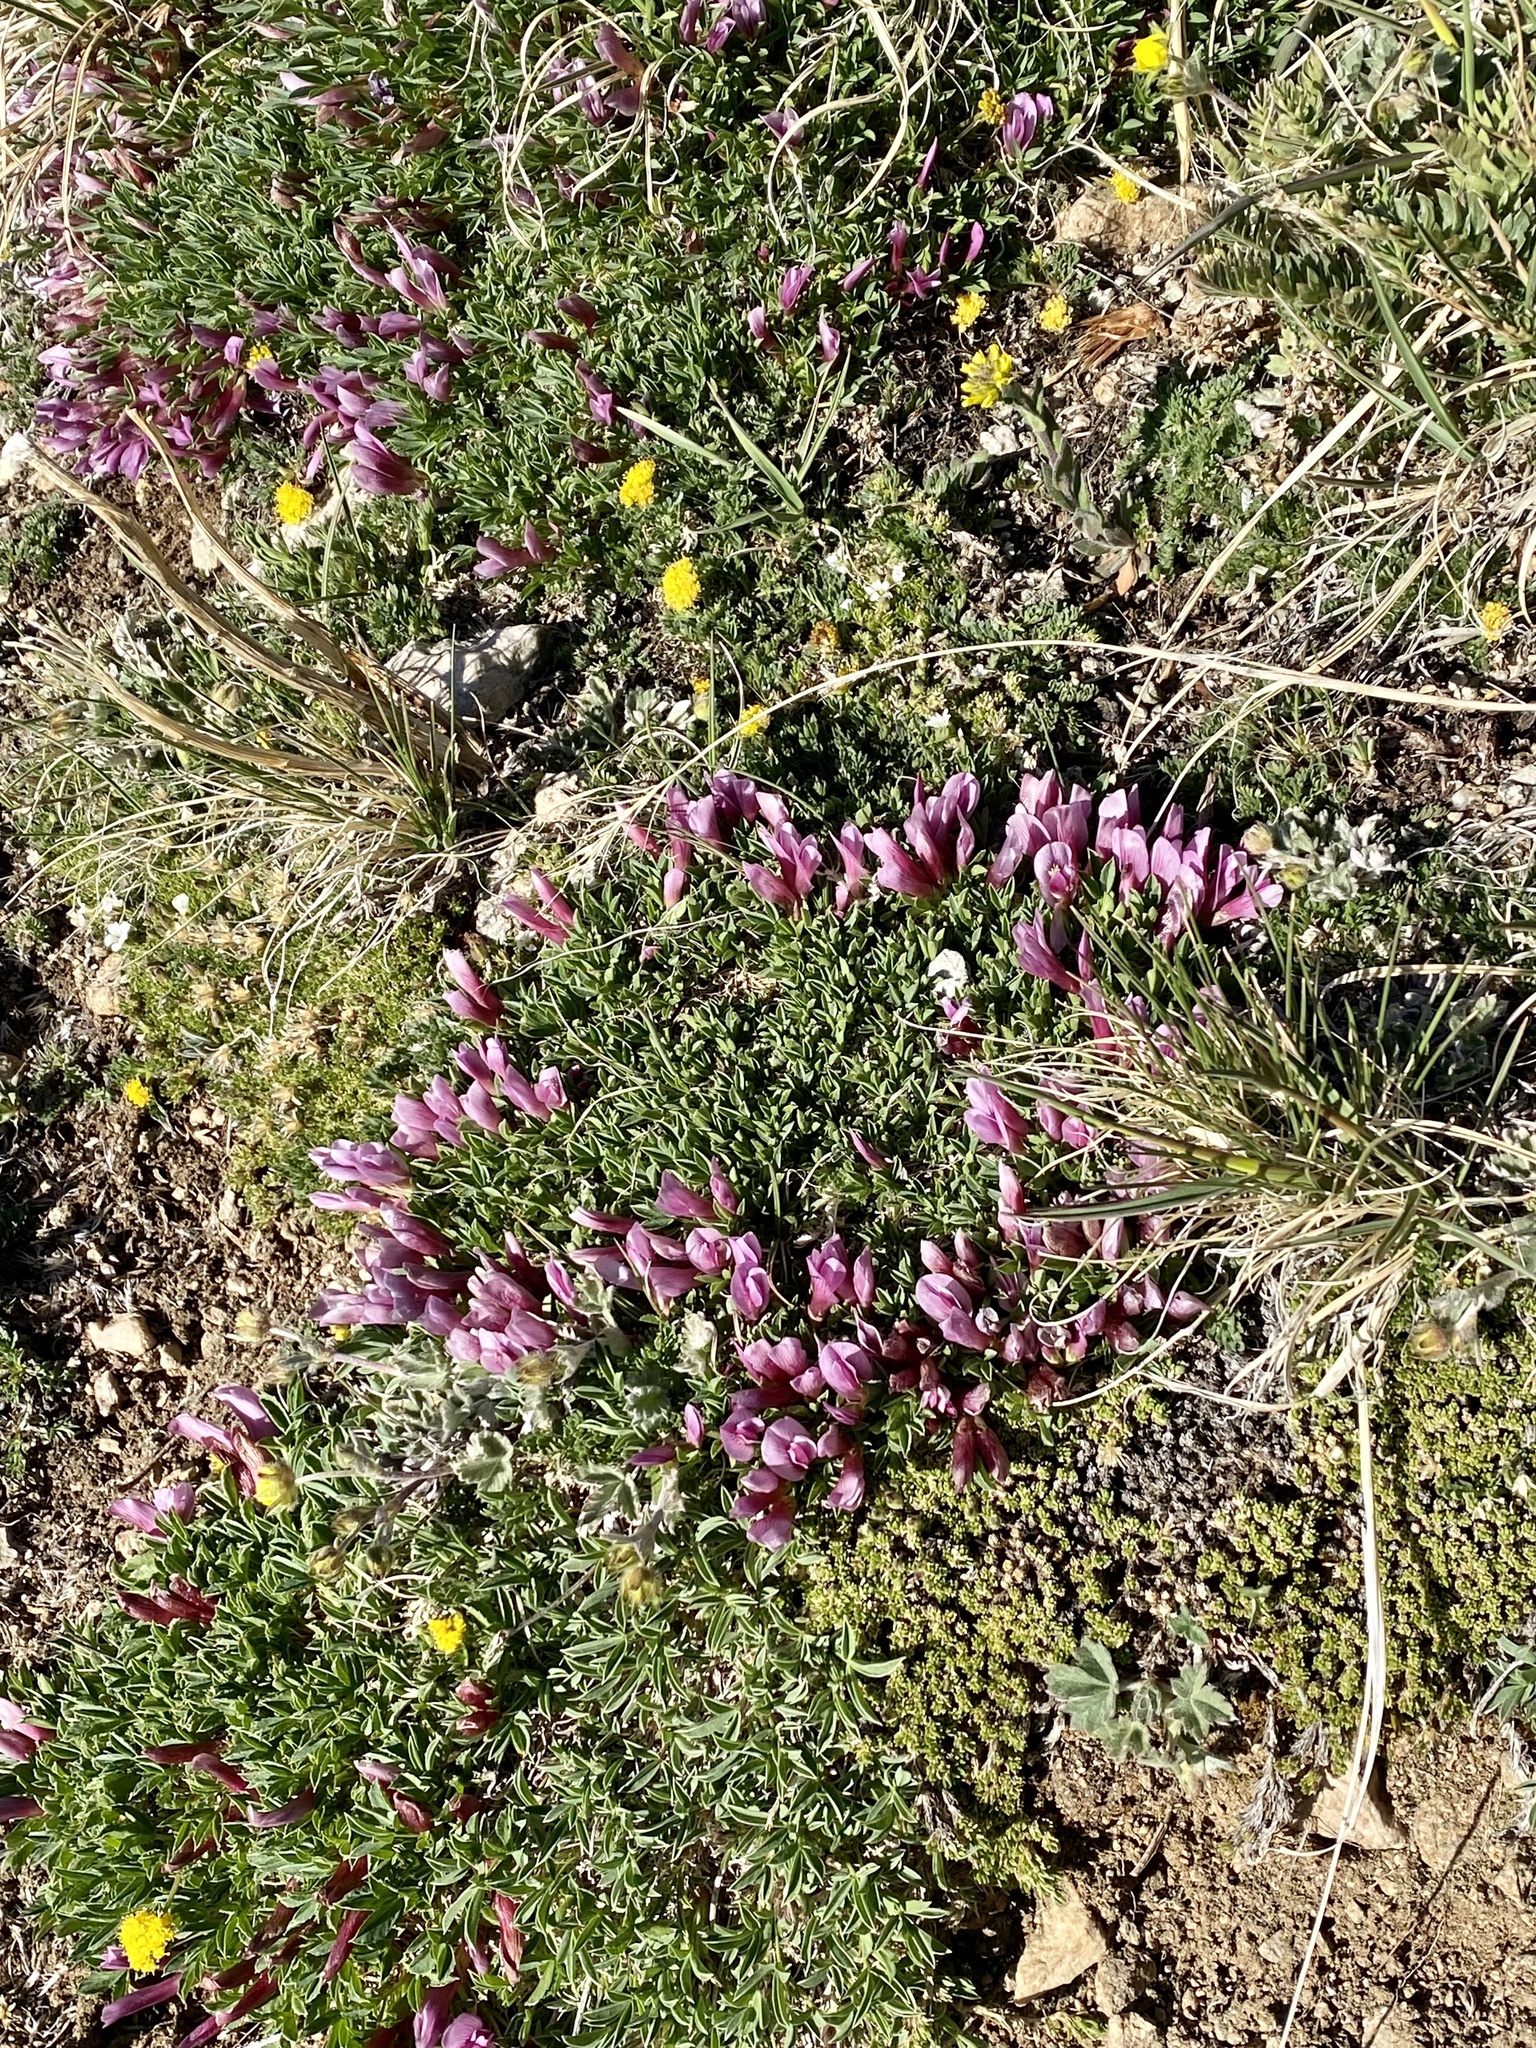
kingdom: Plantae
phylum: Tracheophyta
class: Magnoliopsida
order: Fabales
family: Fabaceae
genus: Trifolium
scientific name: Trifolium nanum
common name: Tundra clover
